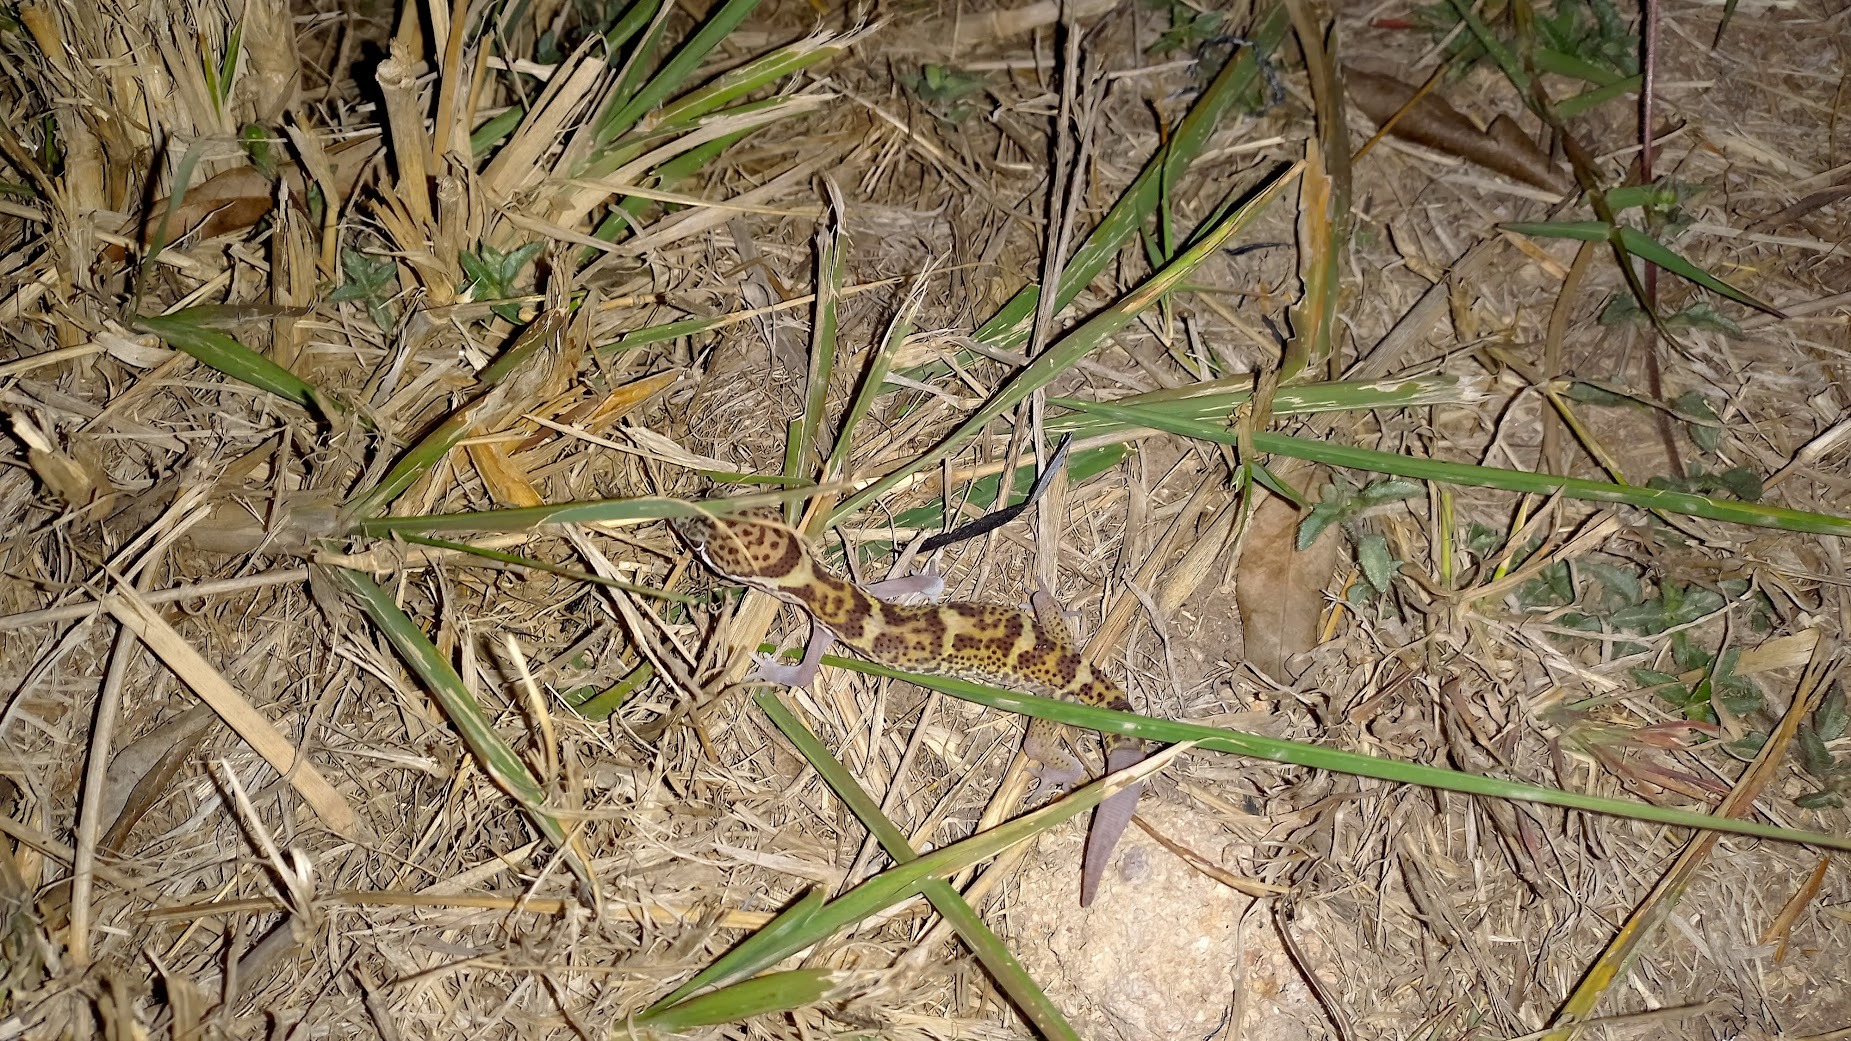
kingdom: Animalia
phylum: Chordata
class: Squamata
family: Eublepharidae
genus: Coleonyx
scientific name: Coleonyx mitratus
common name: Central american banded gecko
